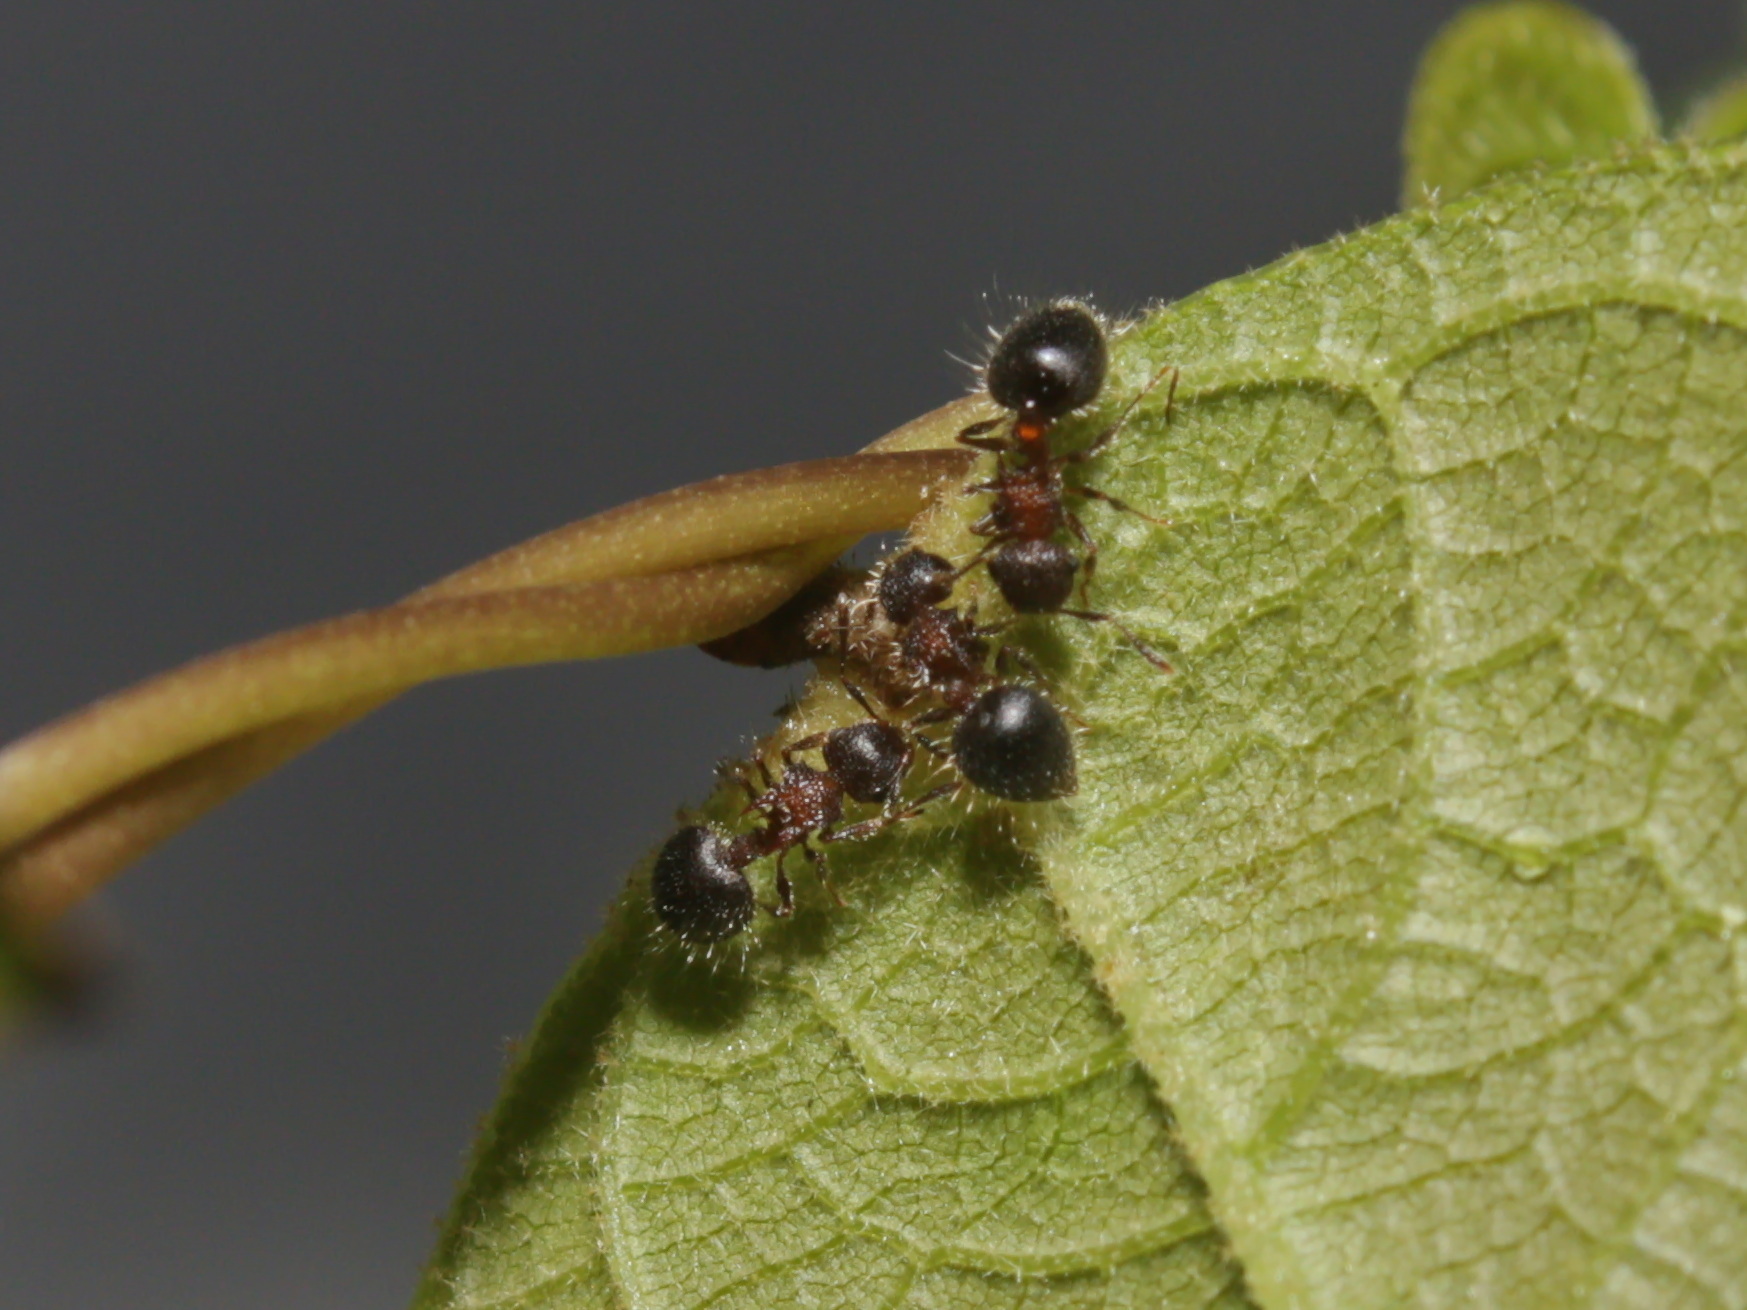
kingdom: Animalia
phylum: Arthropoda
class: Insecta
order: Hymenoptera
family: Formicidae
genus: Meranoplus
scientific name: Meranoplus bicolor
